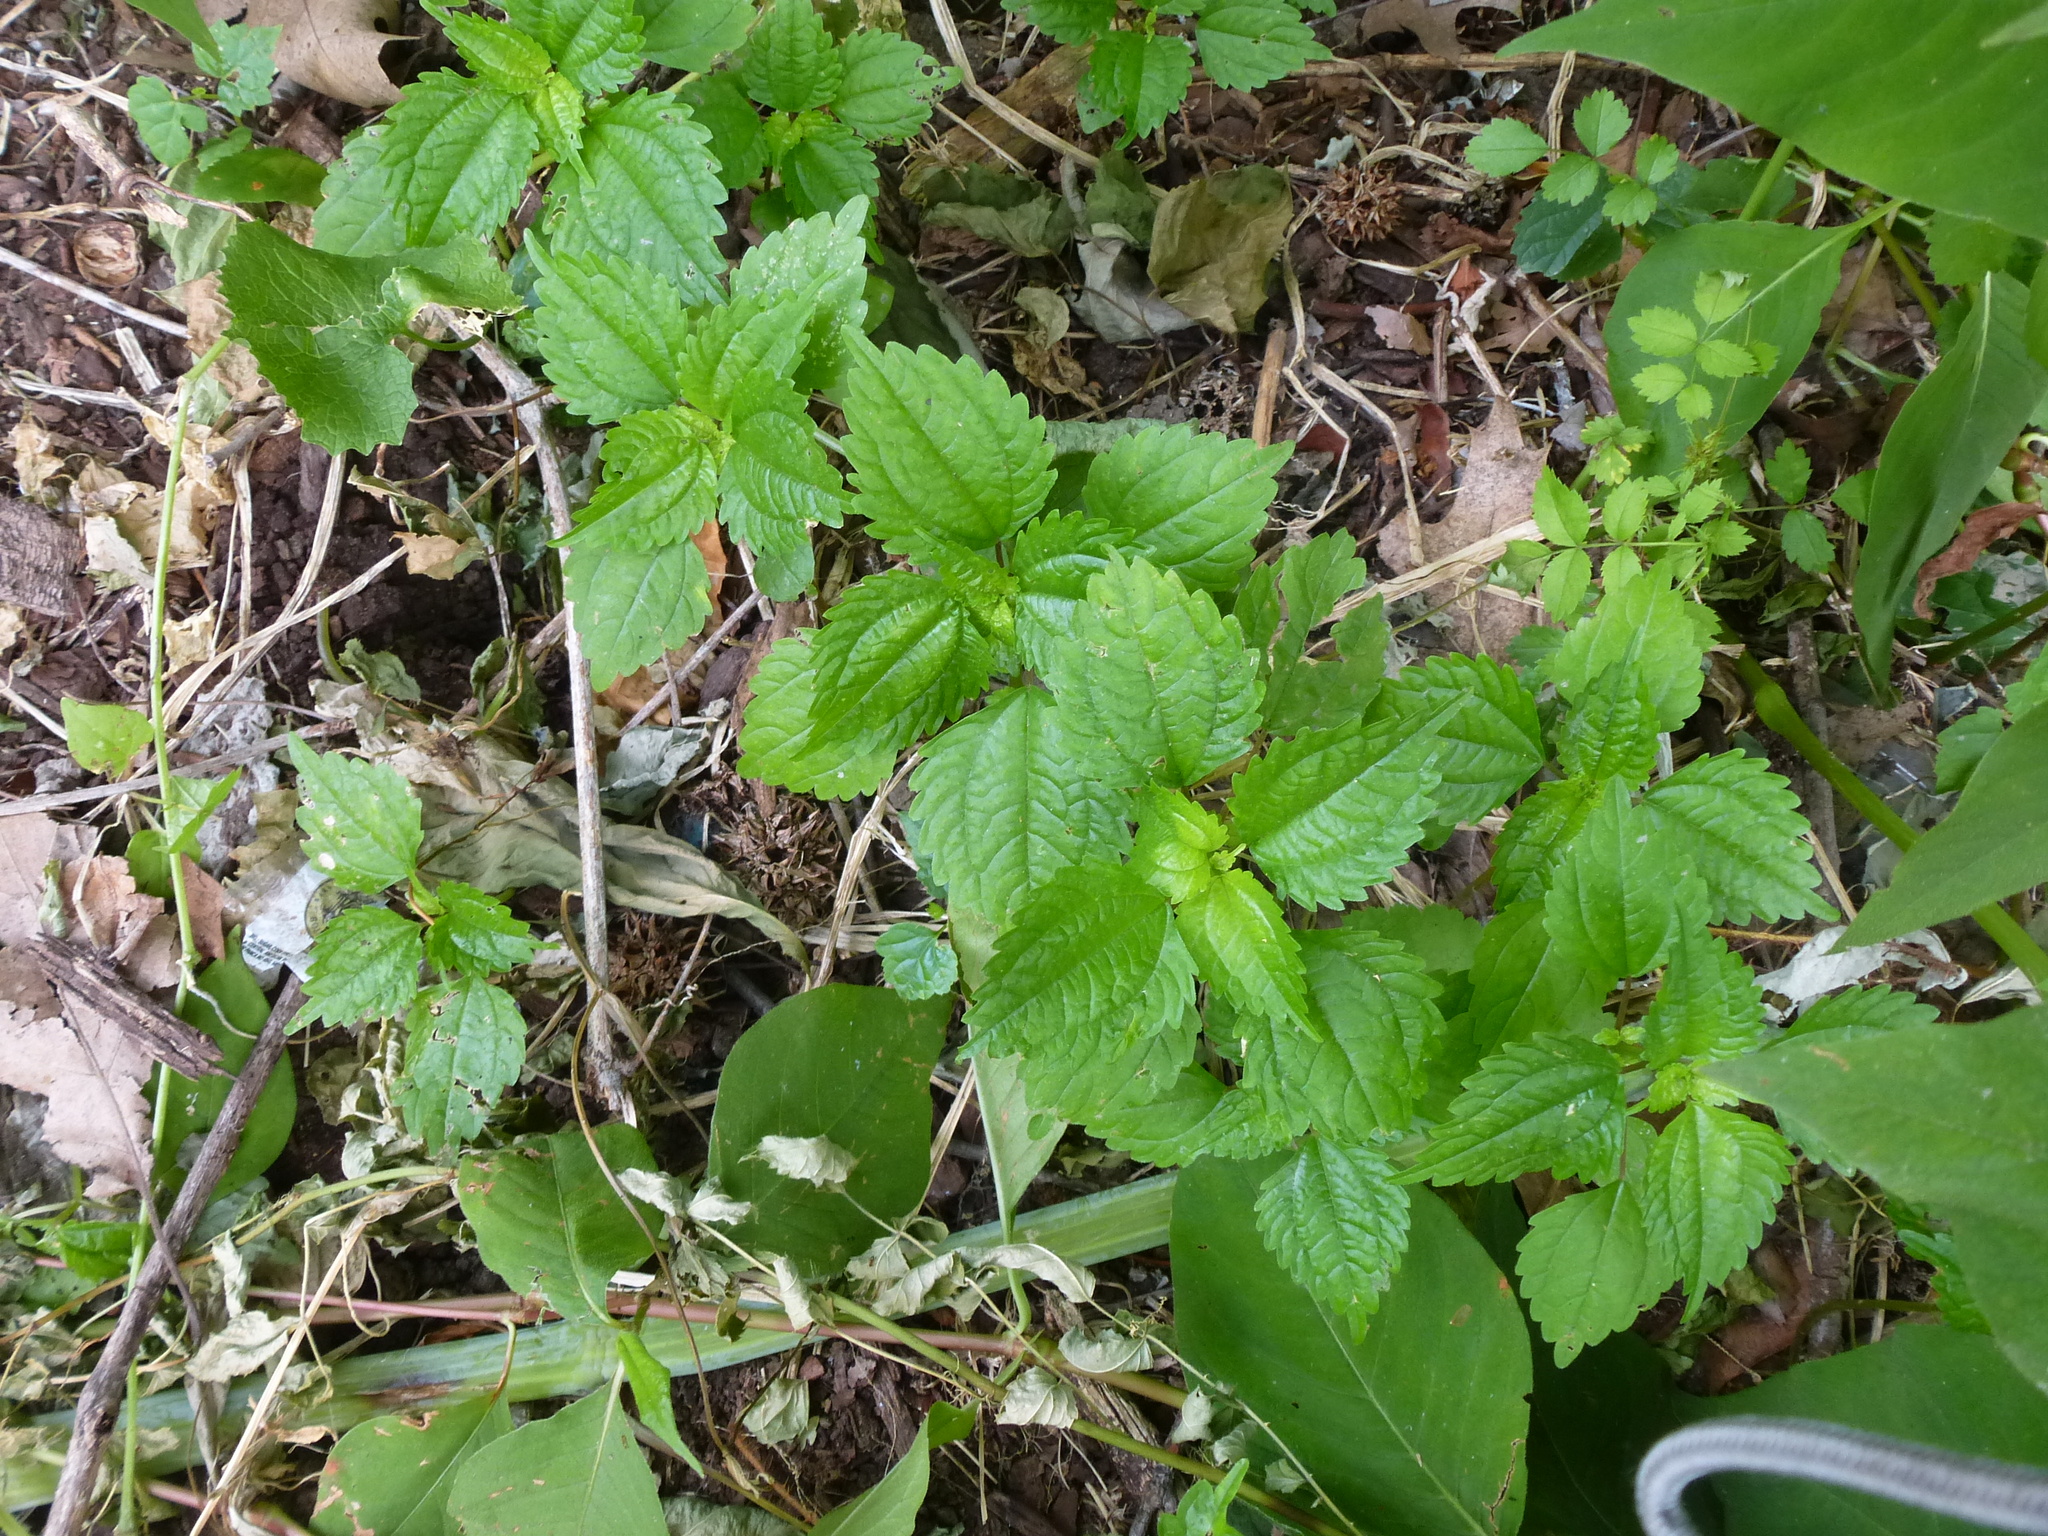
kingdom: Plantae
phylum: Tracheophyta
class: Magnoliopsida
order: Rosales
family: Urticaceae
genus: Pilea
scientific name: Pilea pumila
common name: Clearweed
